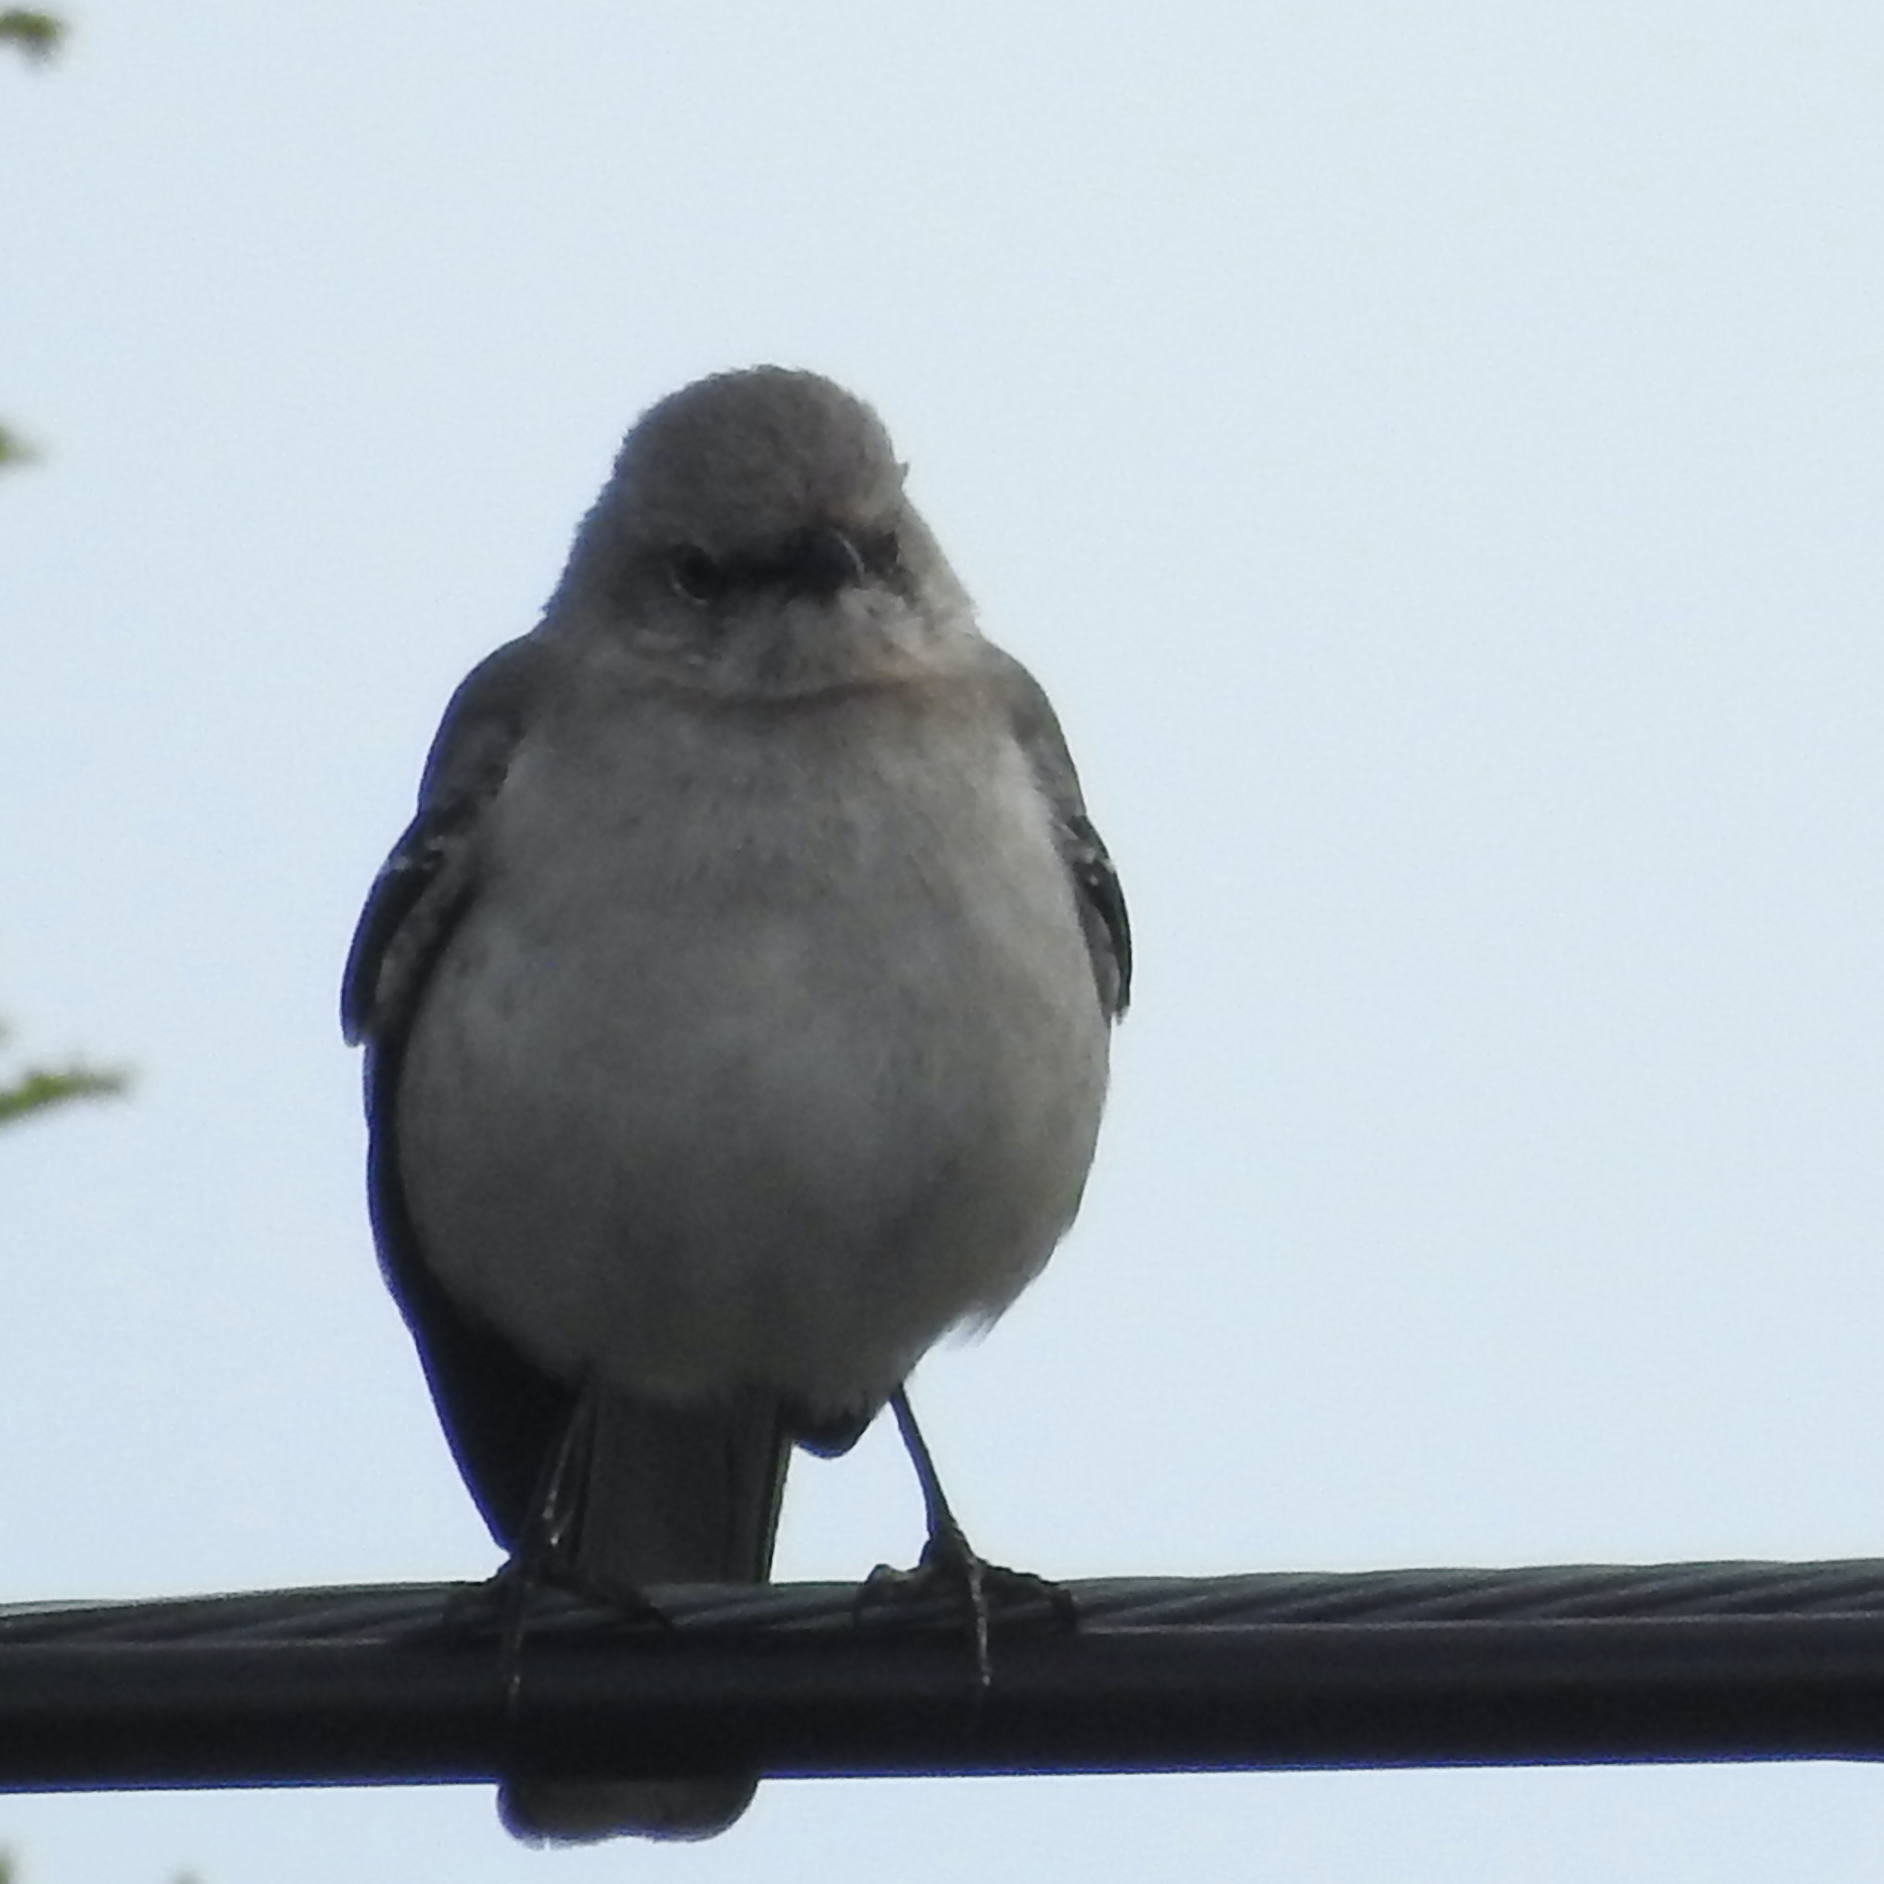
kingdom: Animalia
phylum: Chordata
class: Aves
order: Passeriformes
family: Mimidae
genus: Mimus
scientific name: Mimus polyglottos
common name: Northern mockingbird
